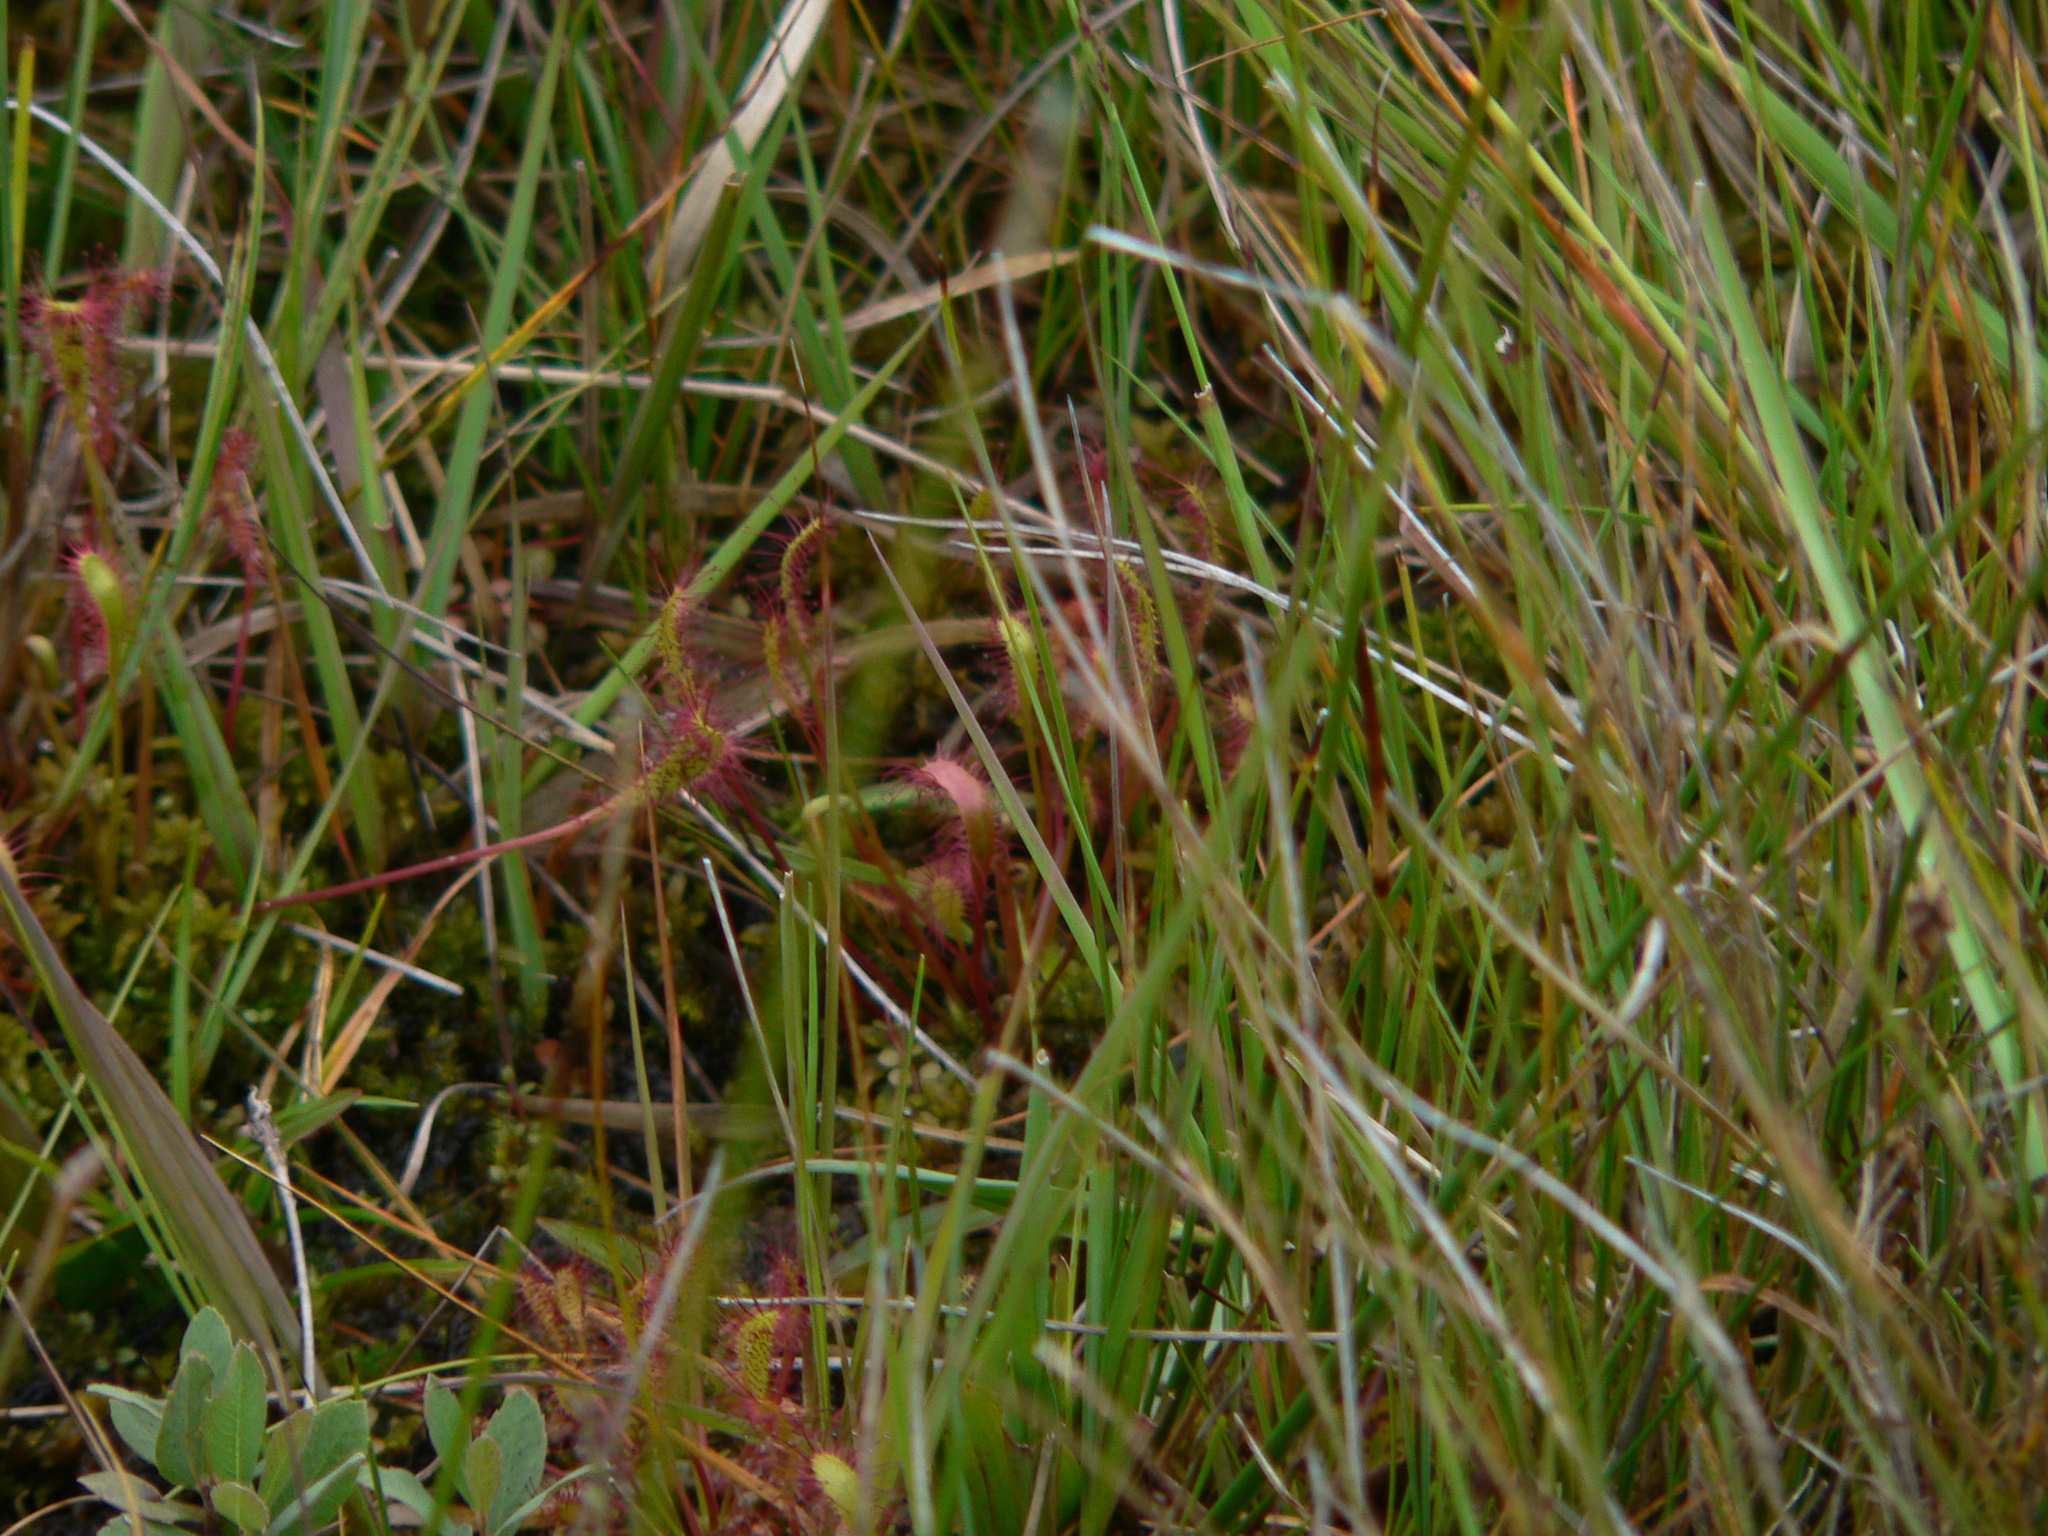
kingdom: Plantae
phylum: Tracheophyta
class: Magnoliopsida
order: Caryophyllales
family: Droseraceae
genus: Drosera
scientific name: Drosera anglica
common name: Great sundew
